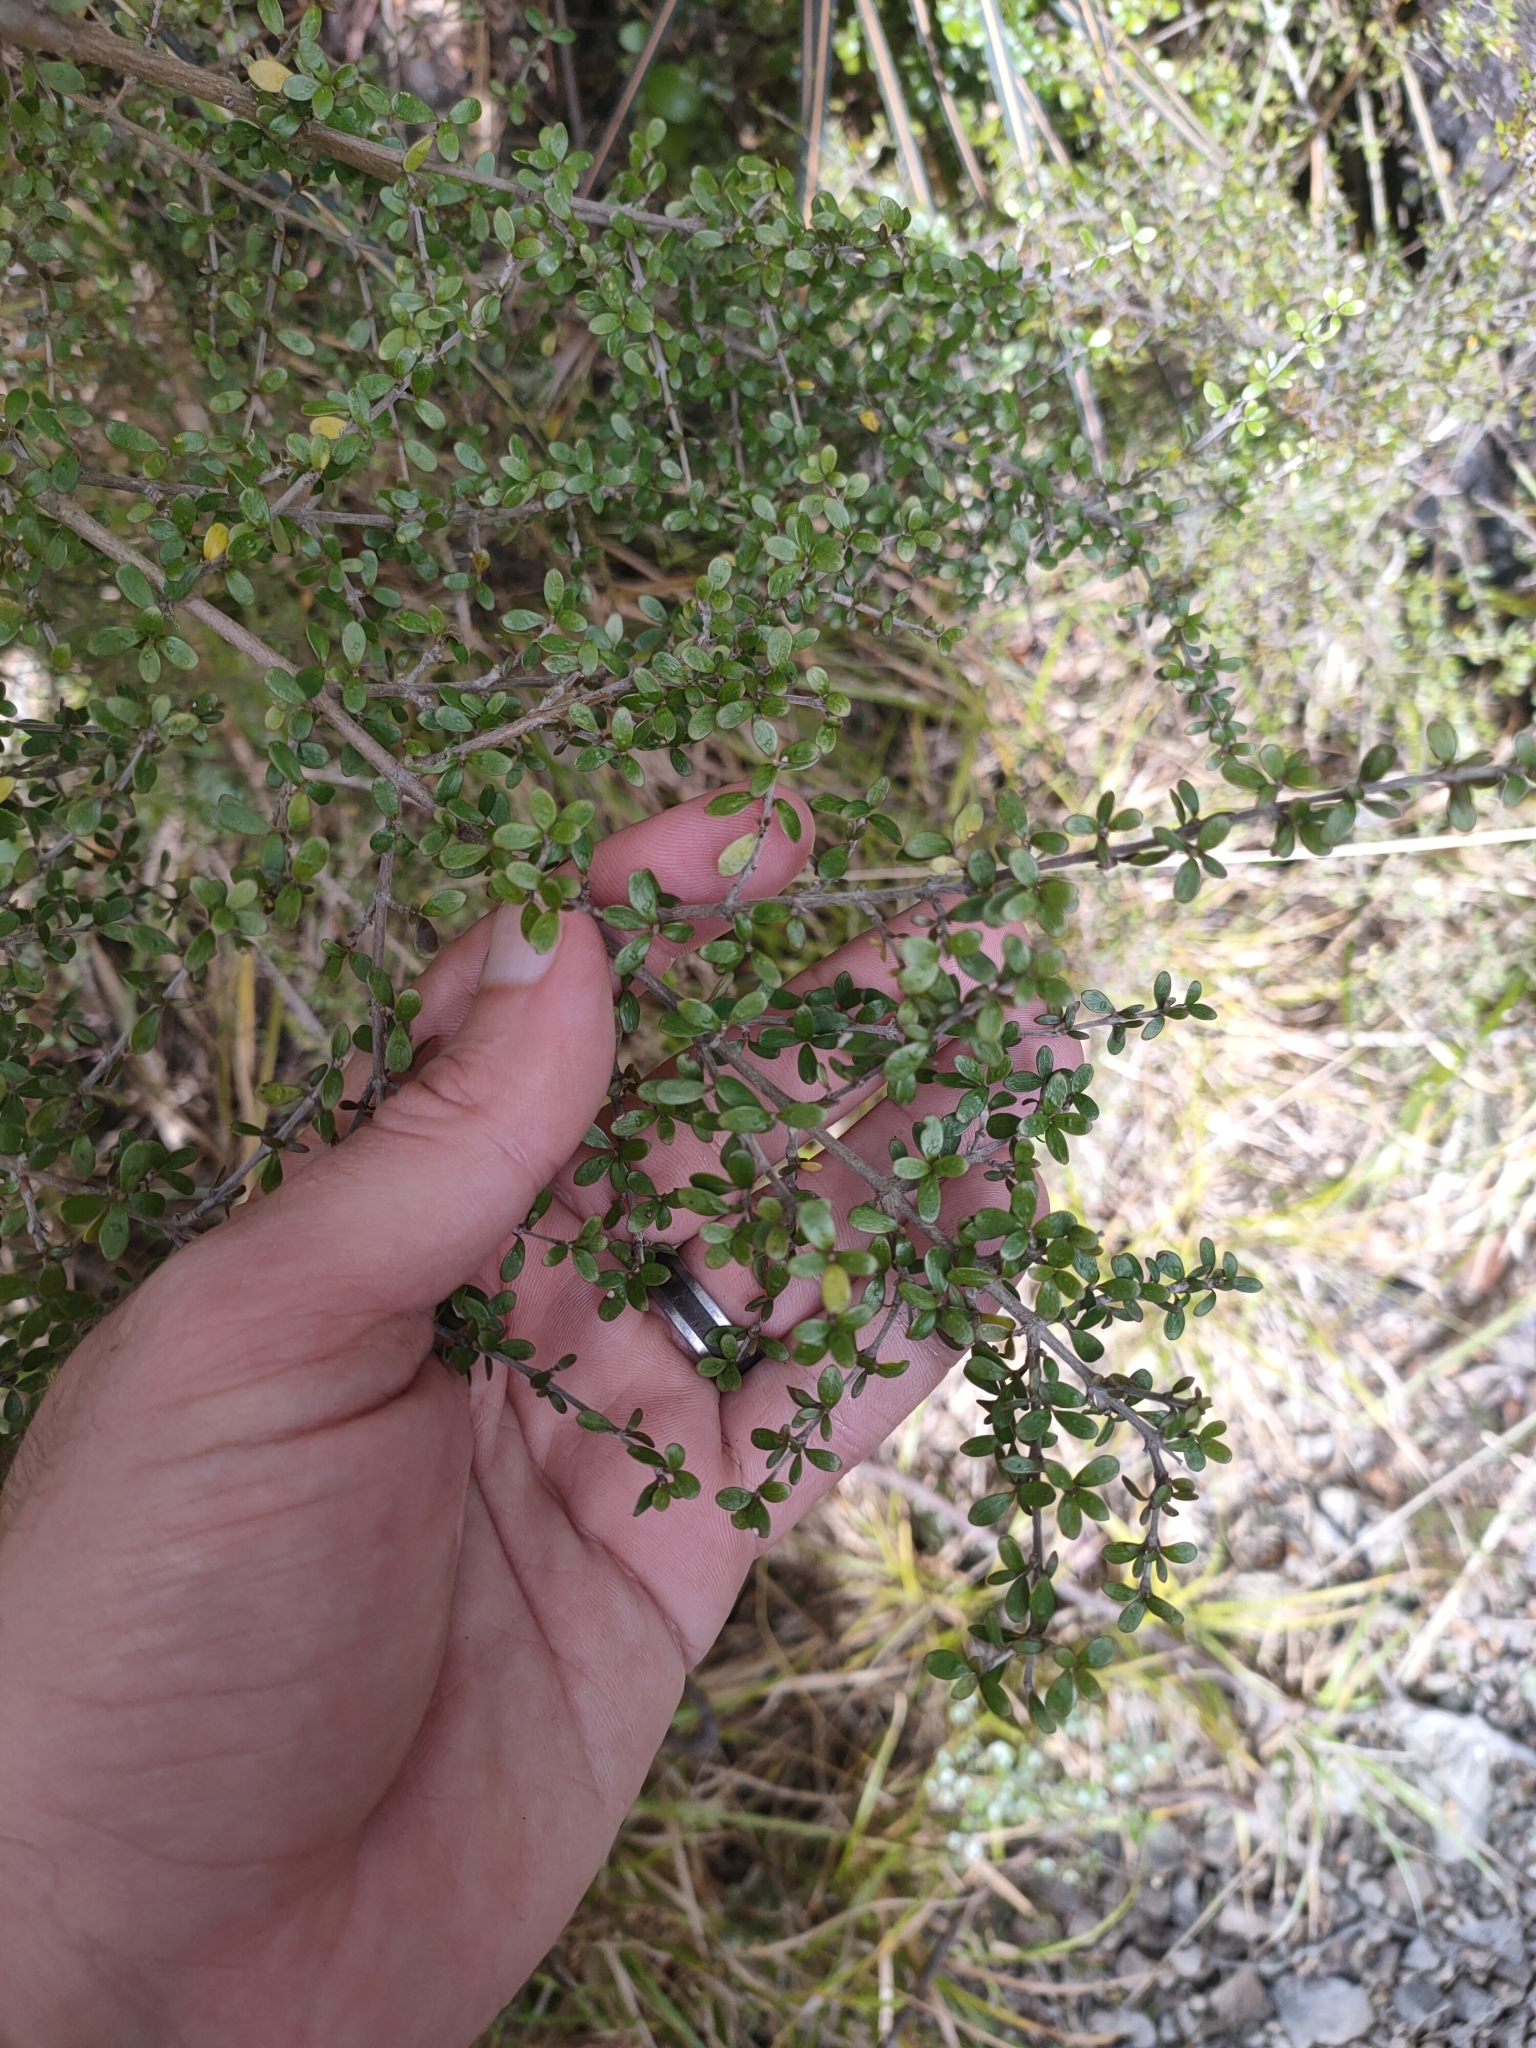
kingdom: Plantae
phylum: Tracheophyta
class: Magnoliopsida
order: Gentianales
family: Rubiaceae
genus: Coprosma
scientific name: Coprosma dumosa
